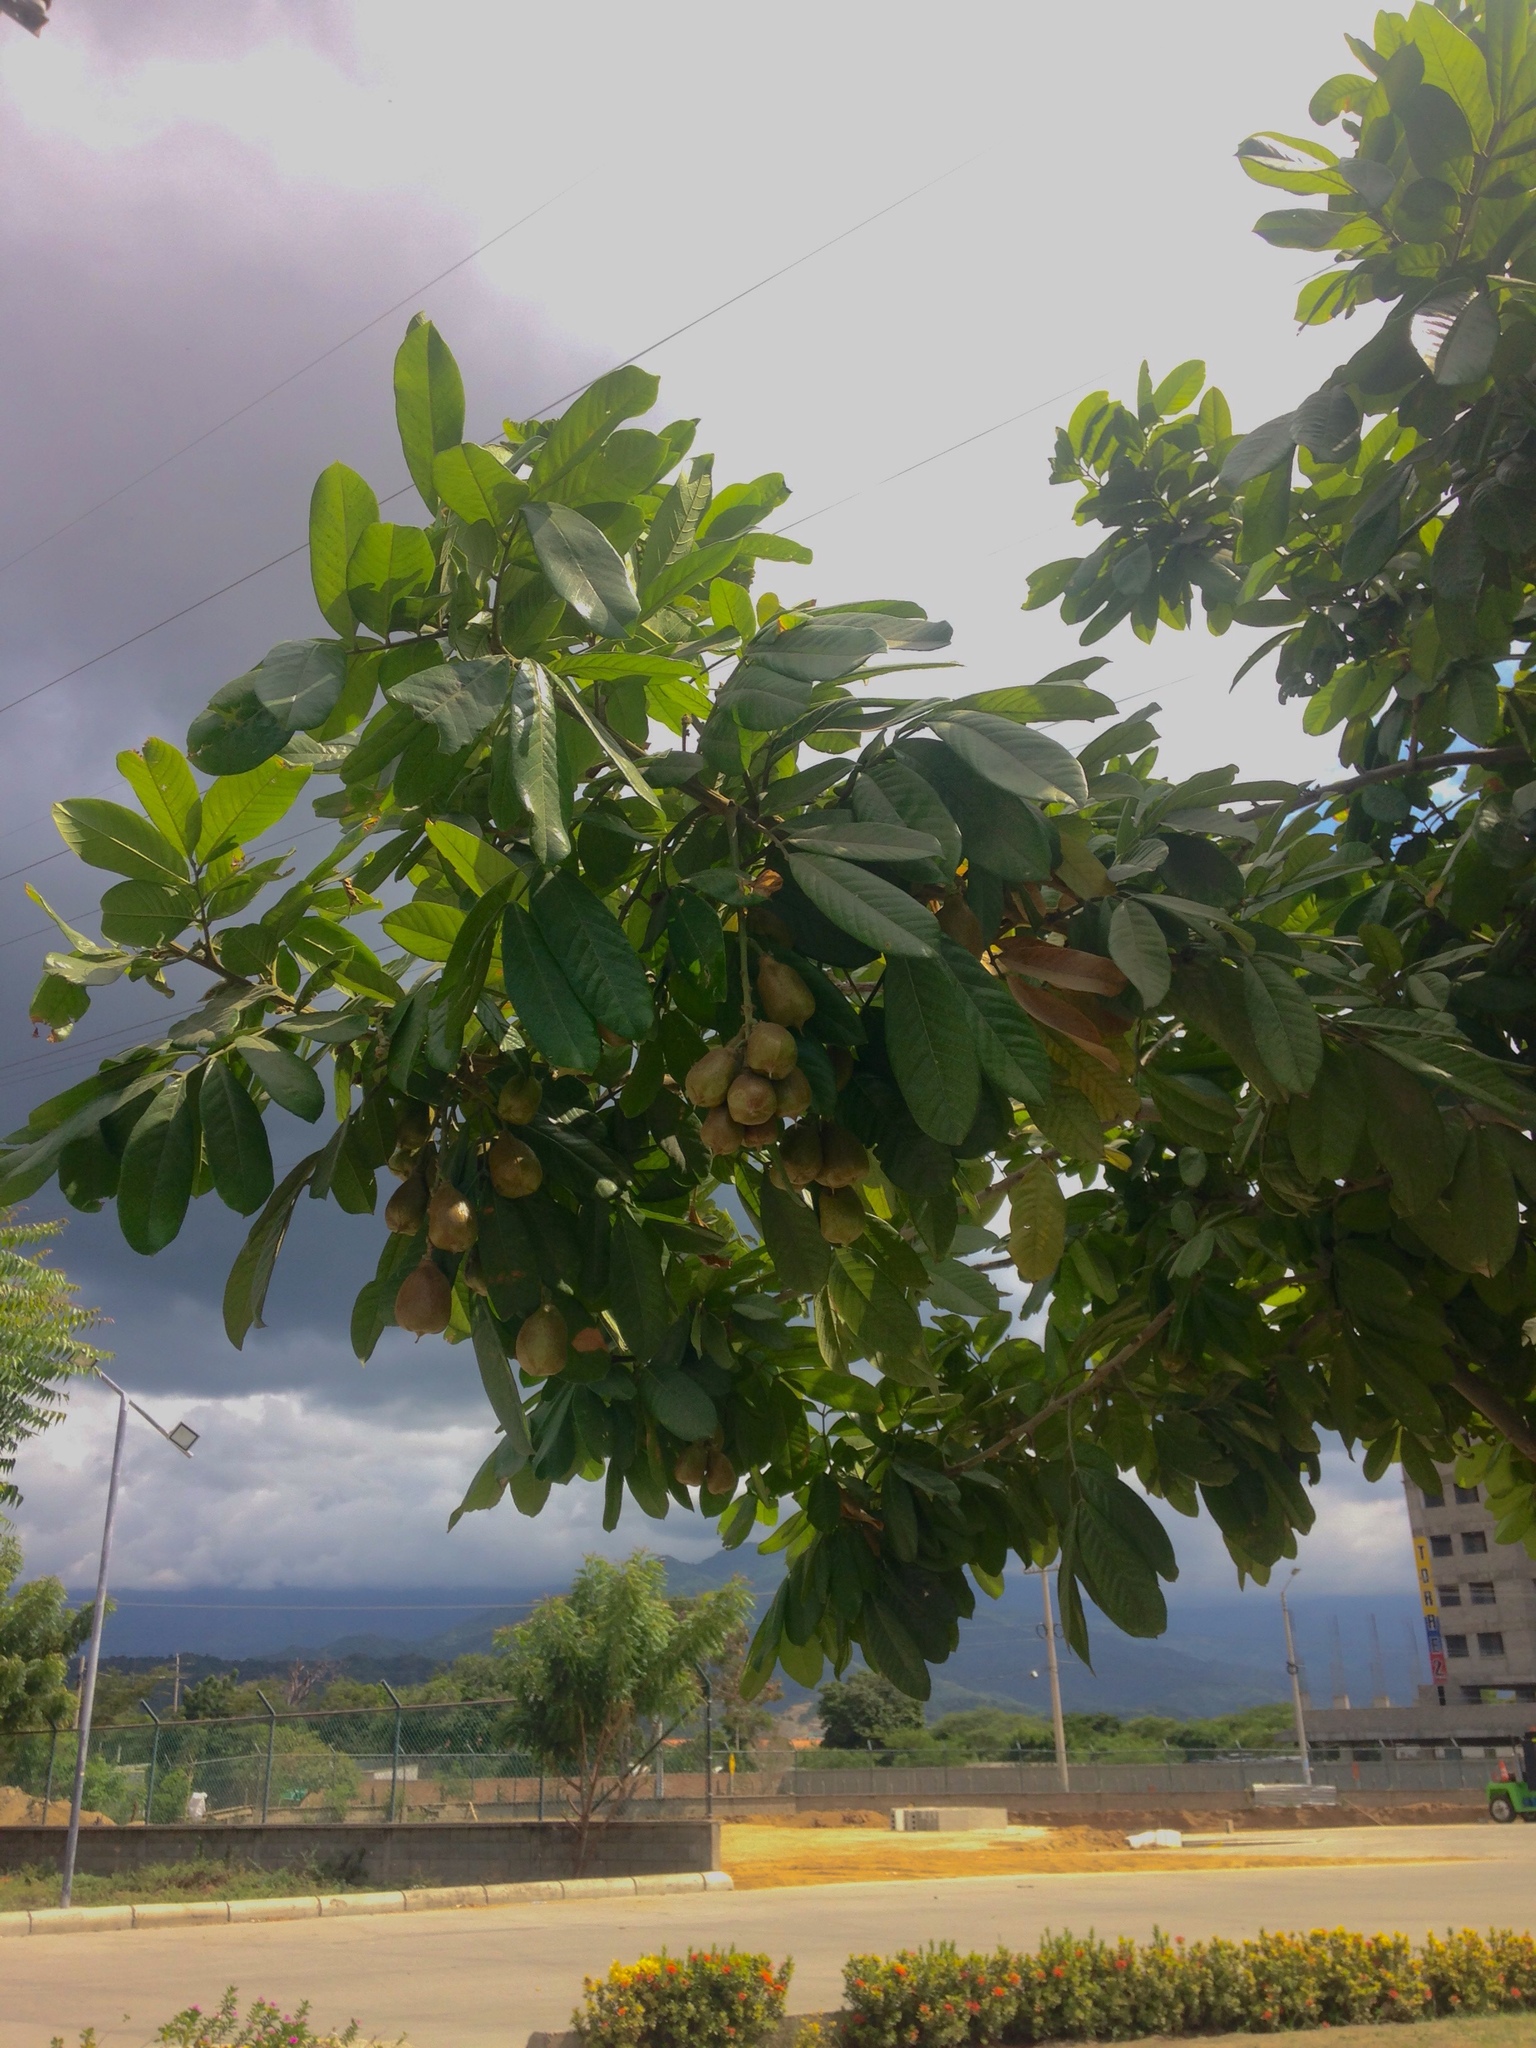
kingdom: Plantae
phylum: Tracheophyta
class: Magnoliopsida
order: Sapindales
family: Sapindaceae
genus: Blighia
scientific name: Blighia sapida
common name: Akee
